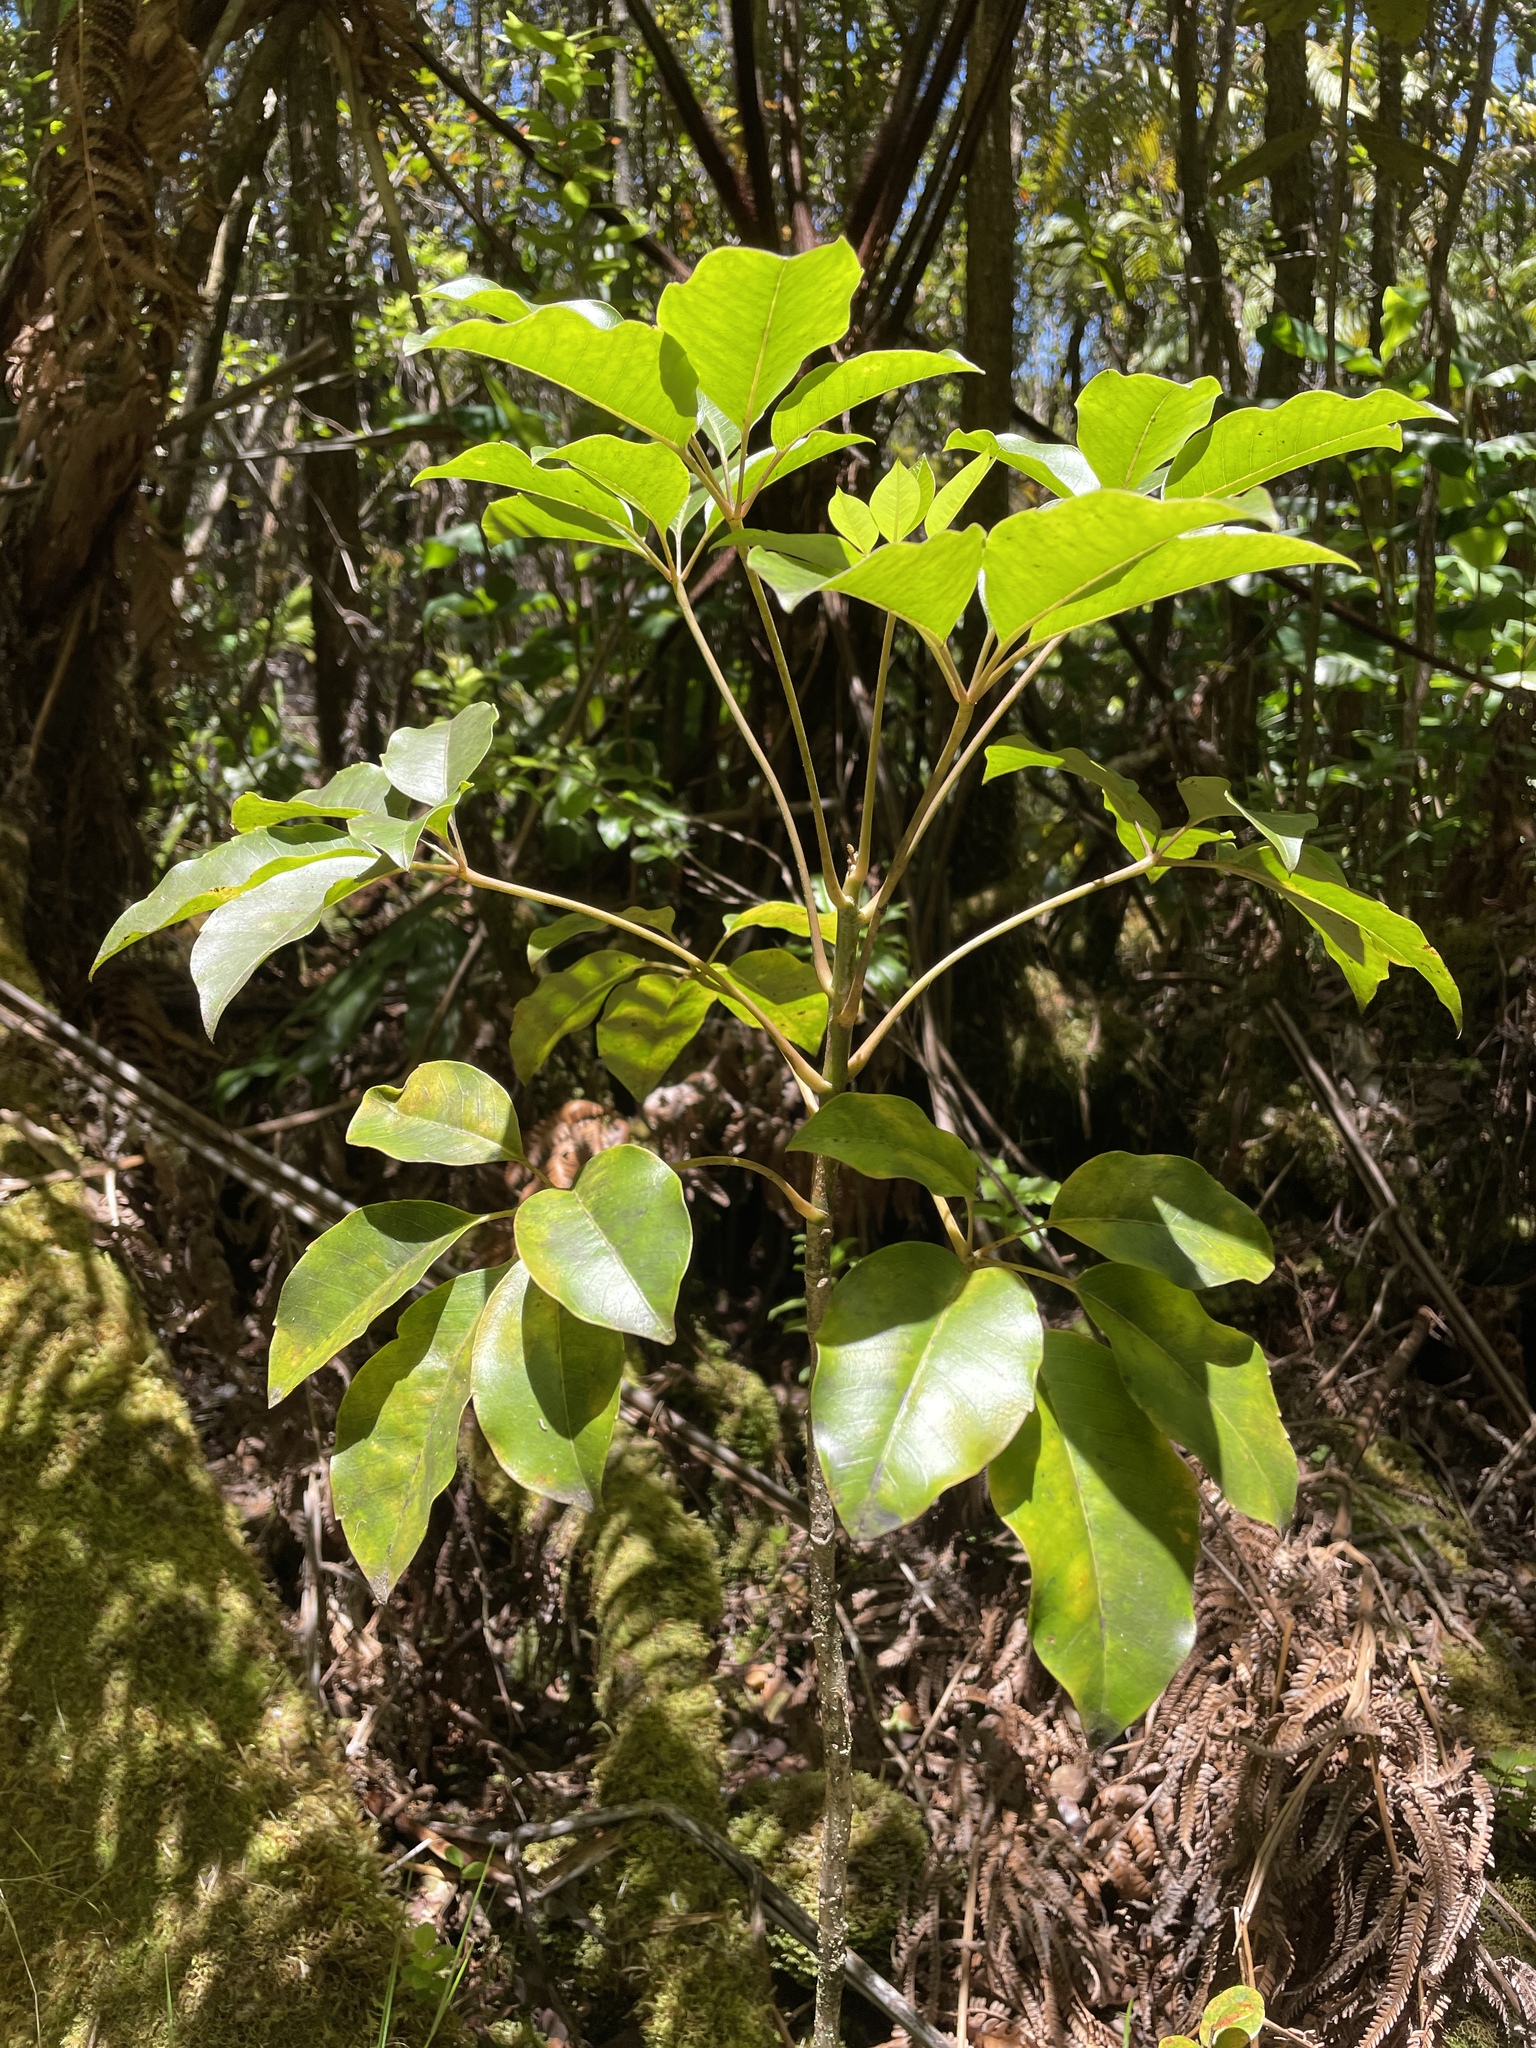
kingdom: Plantae
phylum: Tracheophyta
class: Magnoliopsida
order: Apiales
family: Araliaceae
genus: Cheirodendron
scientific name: Cheirodendron trigynum
